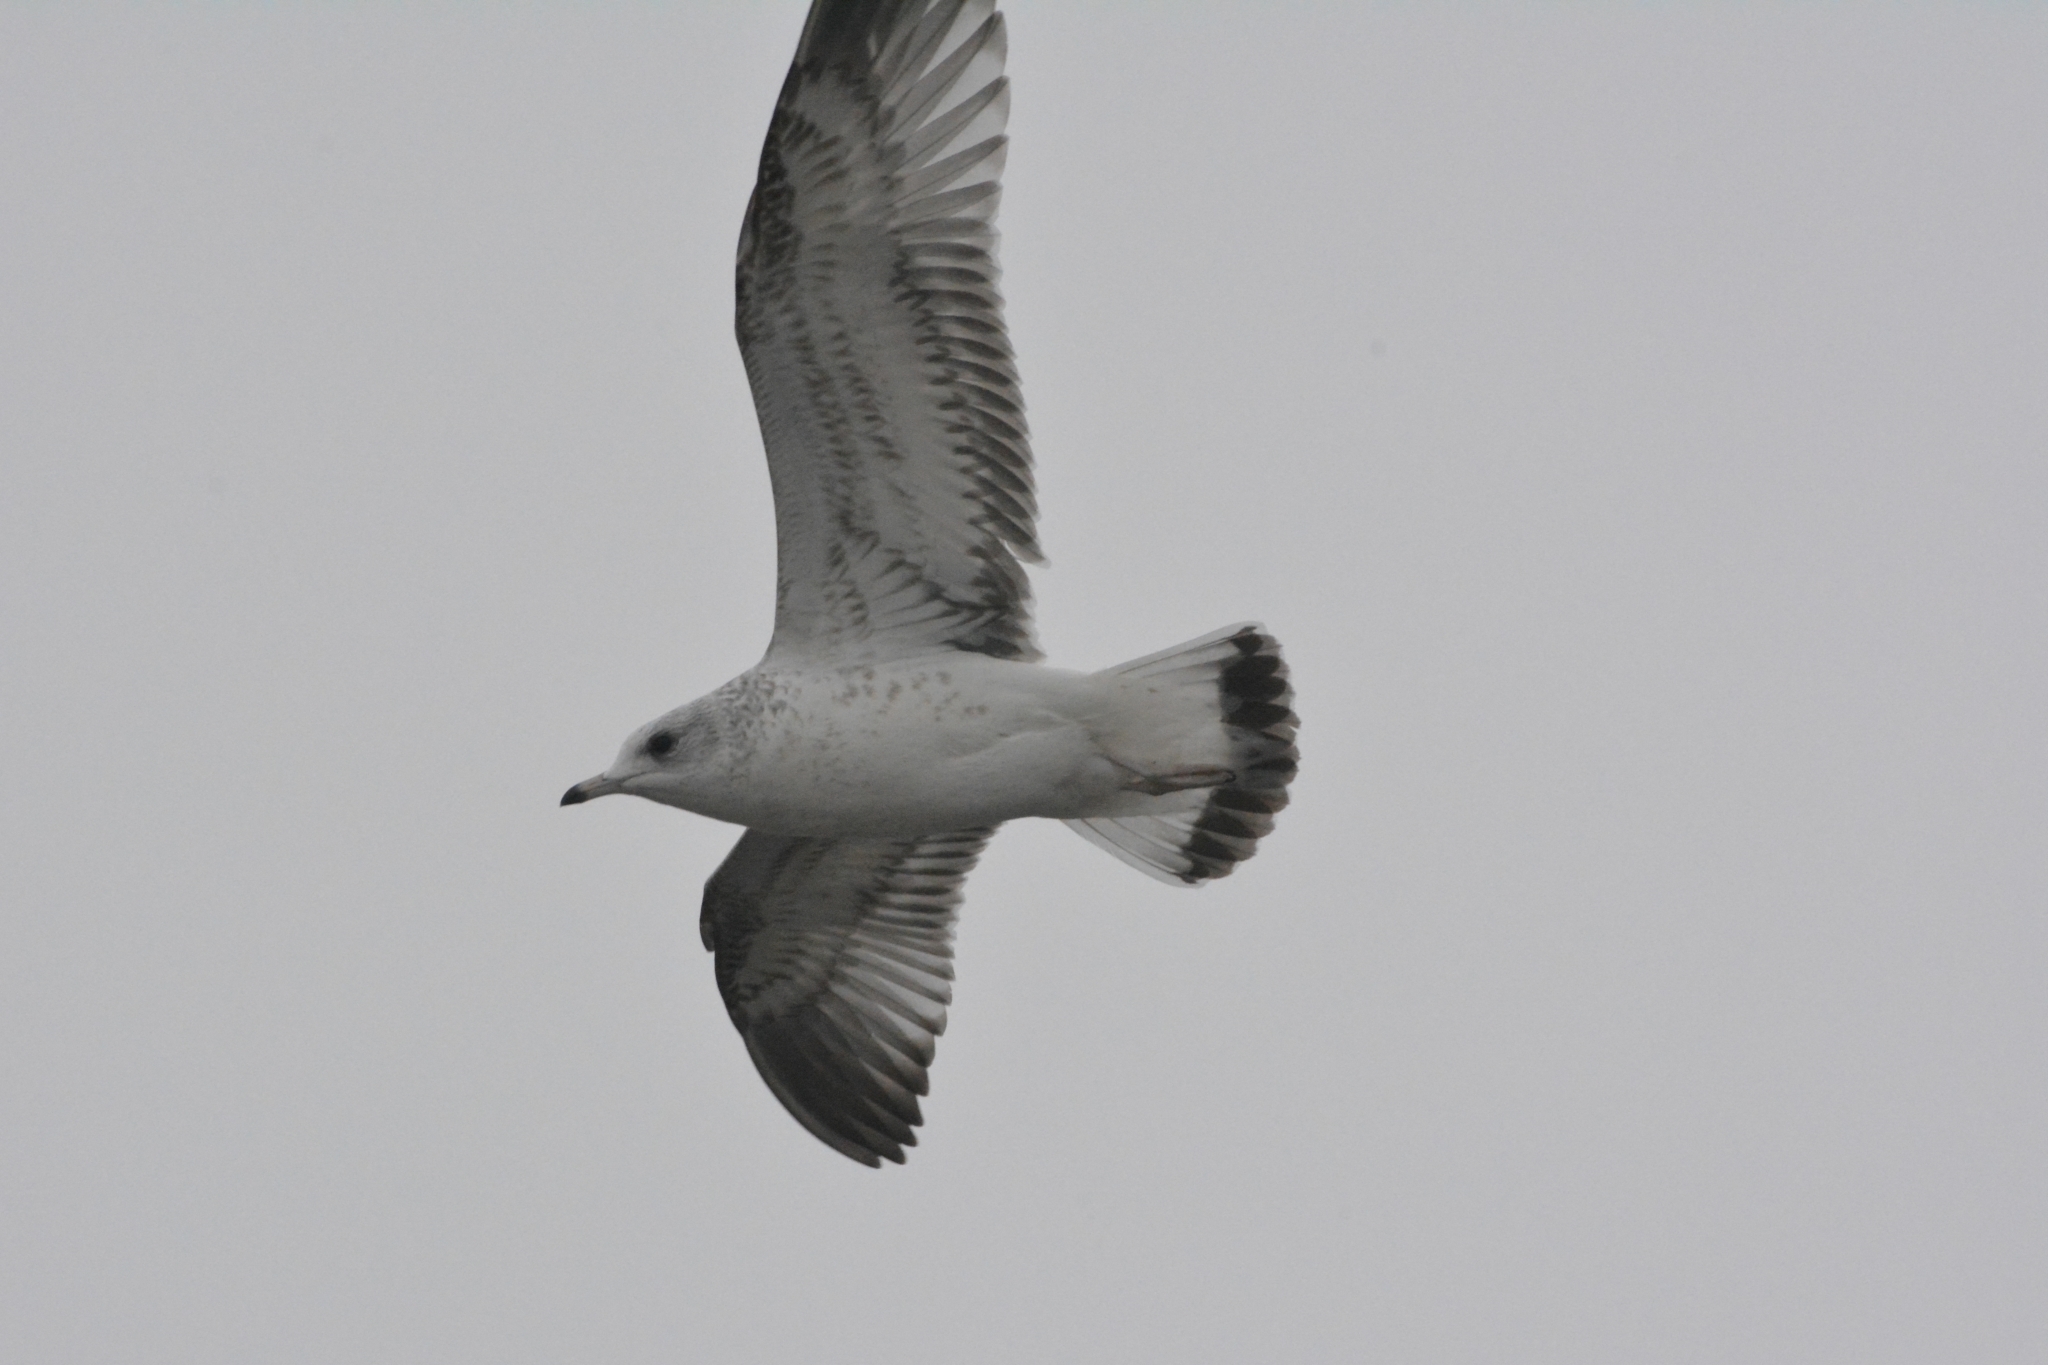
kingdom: Animalia
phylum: Chordata
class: Aves
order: Charadriiformes
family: Laridae
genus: Larus
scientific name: Larus canus
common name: Mew gull
